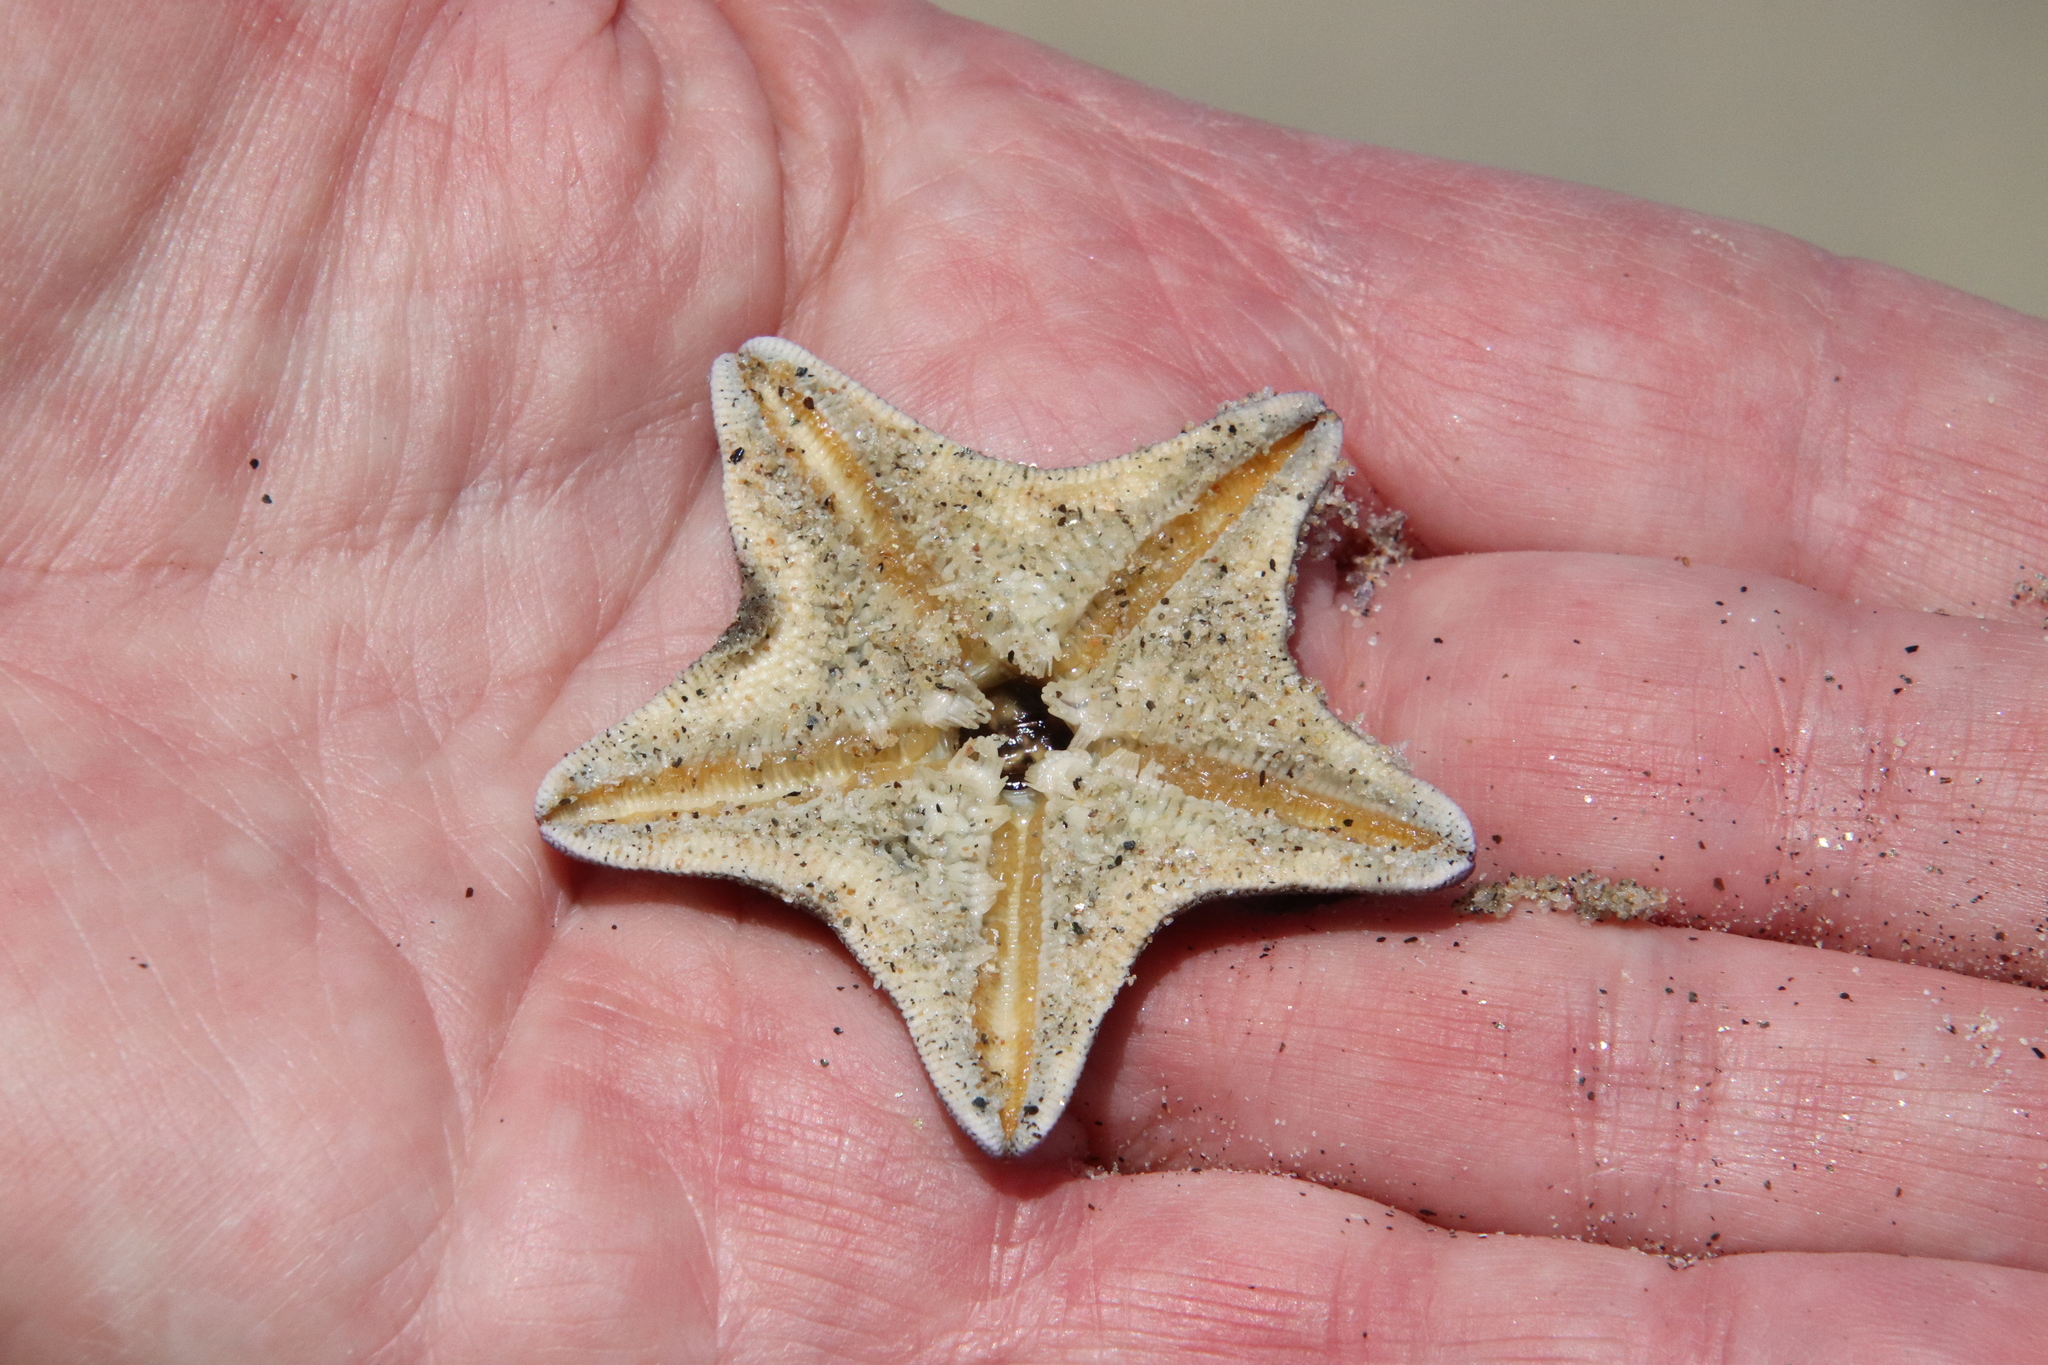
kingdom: Animalia
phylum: Echinodermata
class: Asteroidea
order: Valvatida
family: Asterinidae
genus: Patiria
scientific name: Patiria miniata
